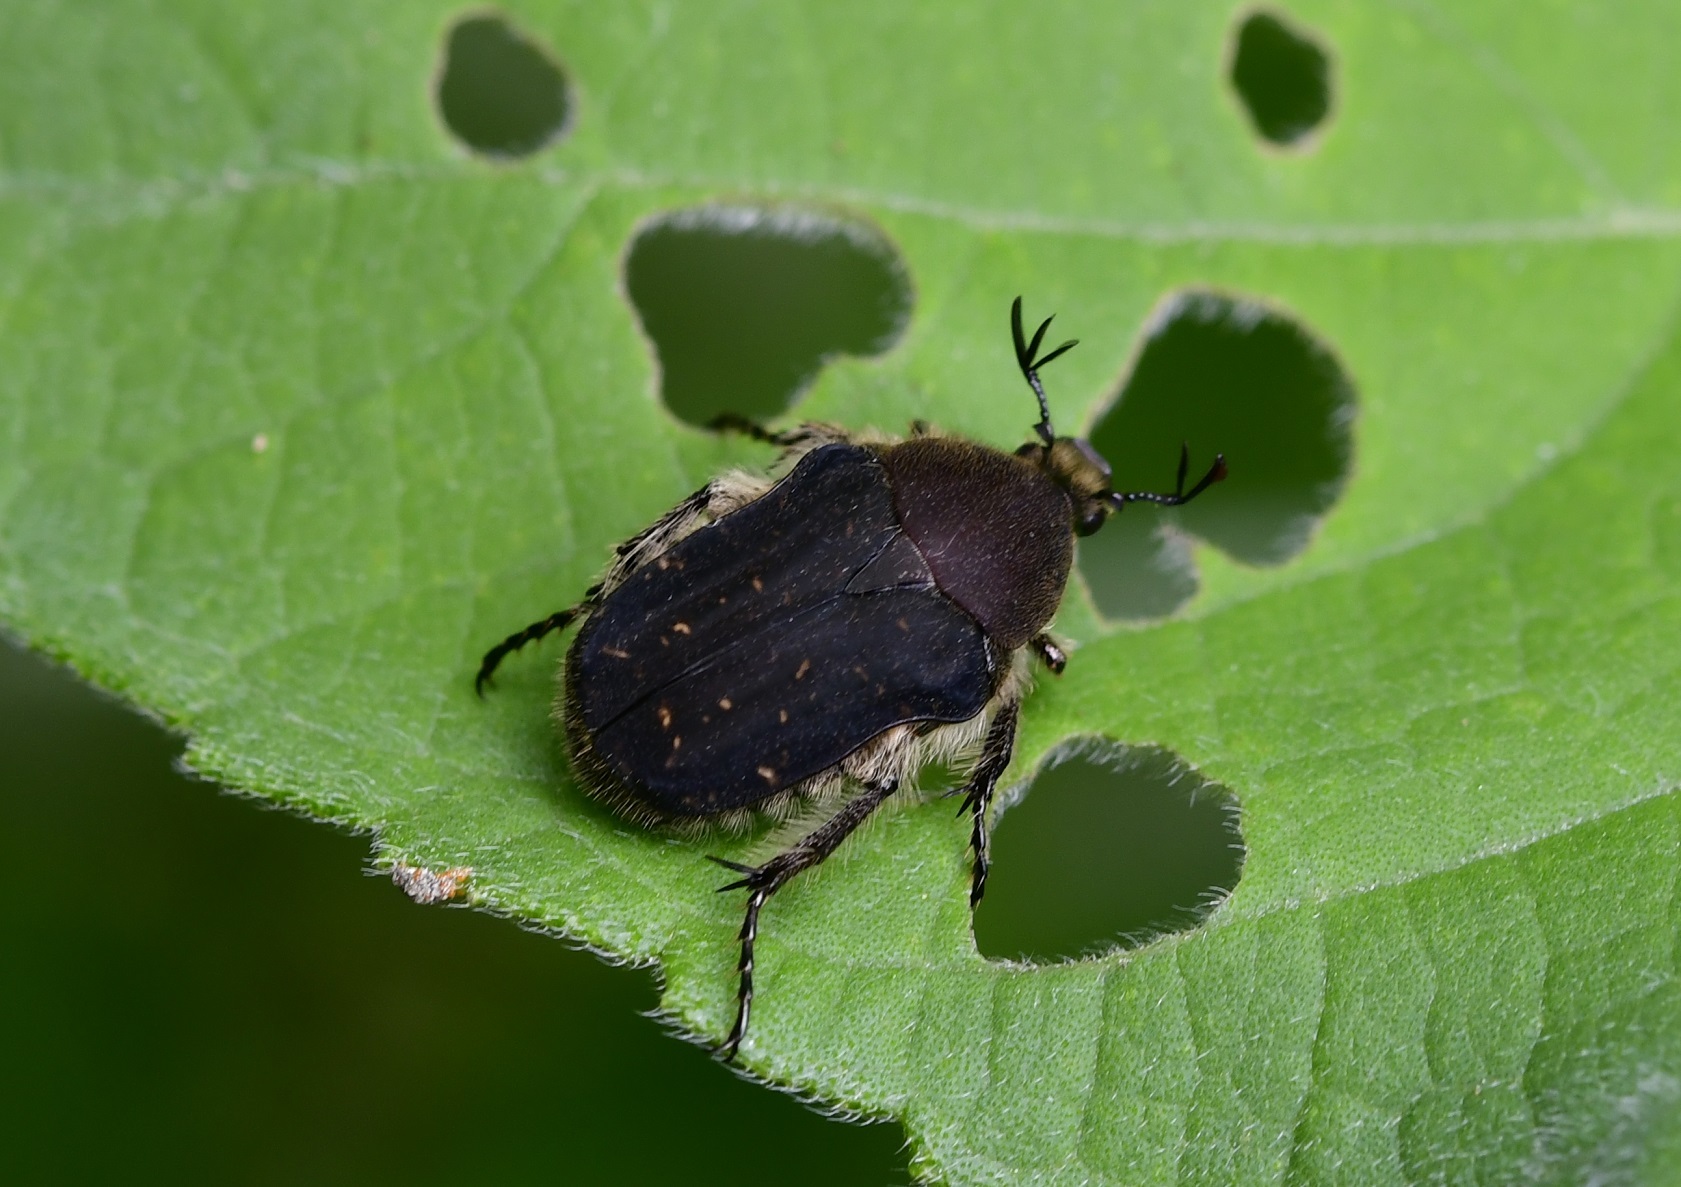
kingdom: Animalia
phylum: Arthropoda
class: Insecta
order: Coleoptera
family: Scarabaeidae
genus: Euphoria
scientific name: Euphoria lacandona
